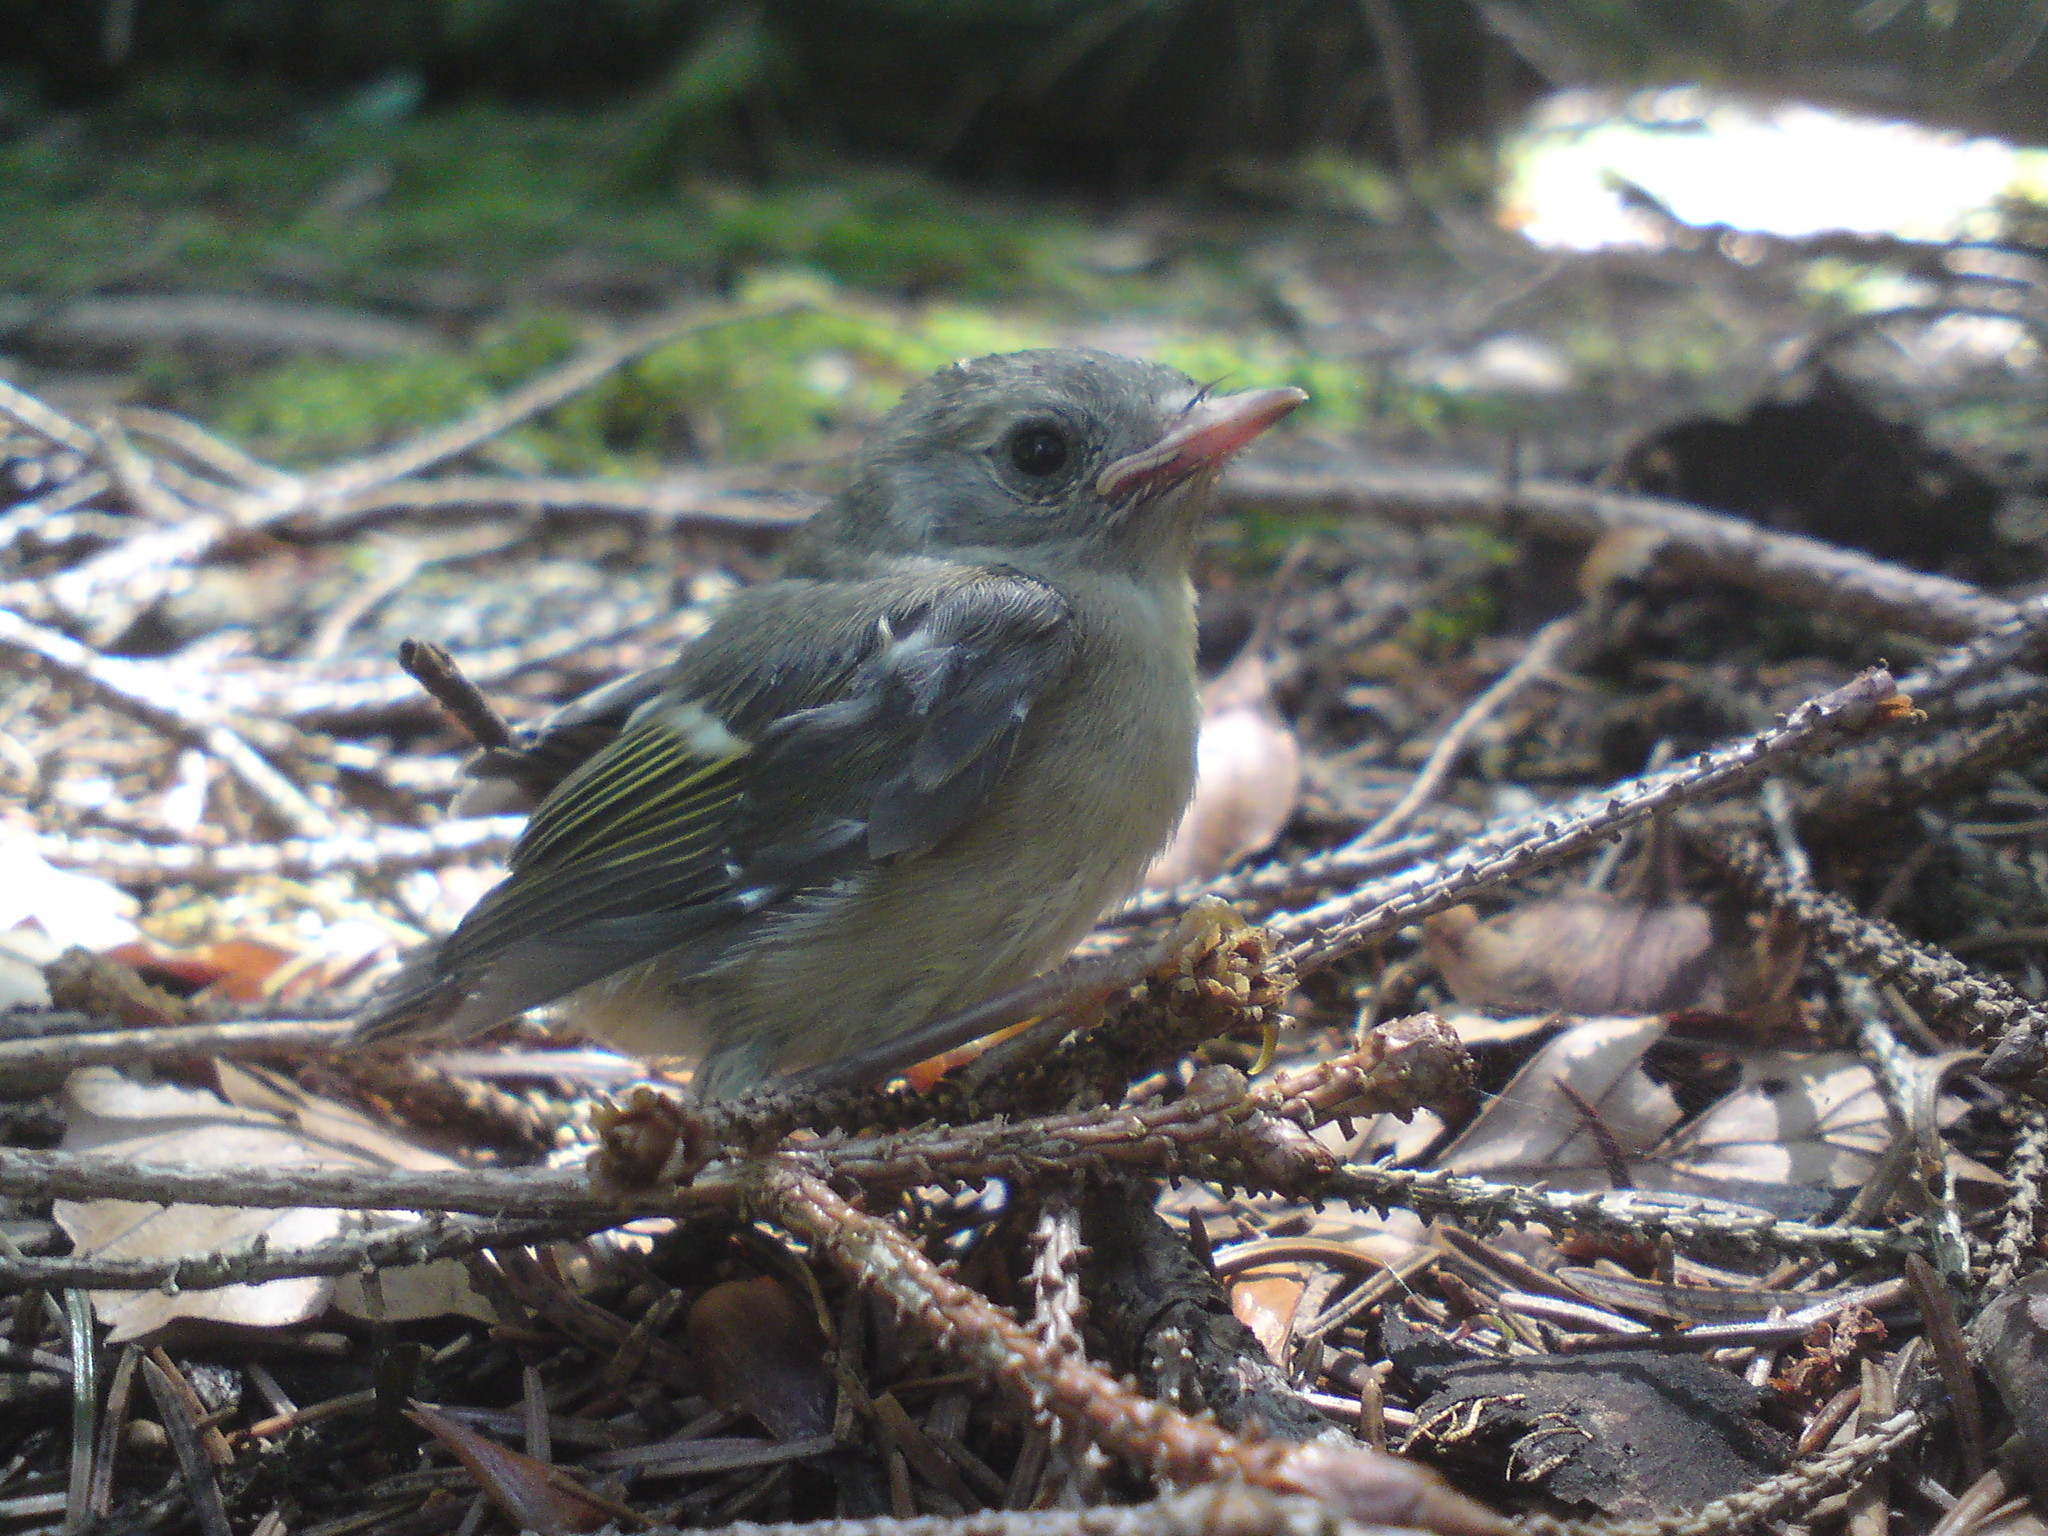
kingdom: Animalia
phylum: Chordata
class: Aves
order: Passeriformes
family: Fringillidae
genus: Fringilla
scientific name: Fringilla coelebs
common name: Common chaffinch
